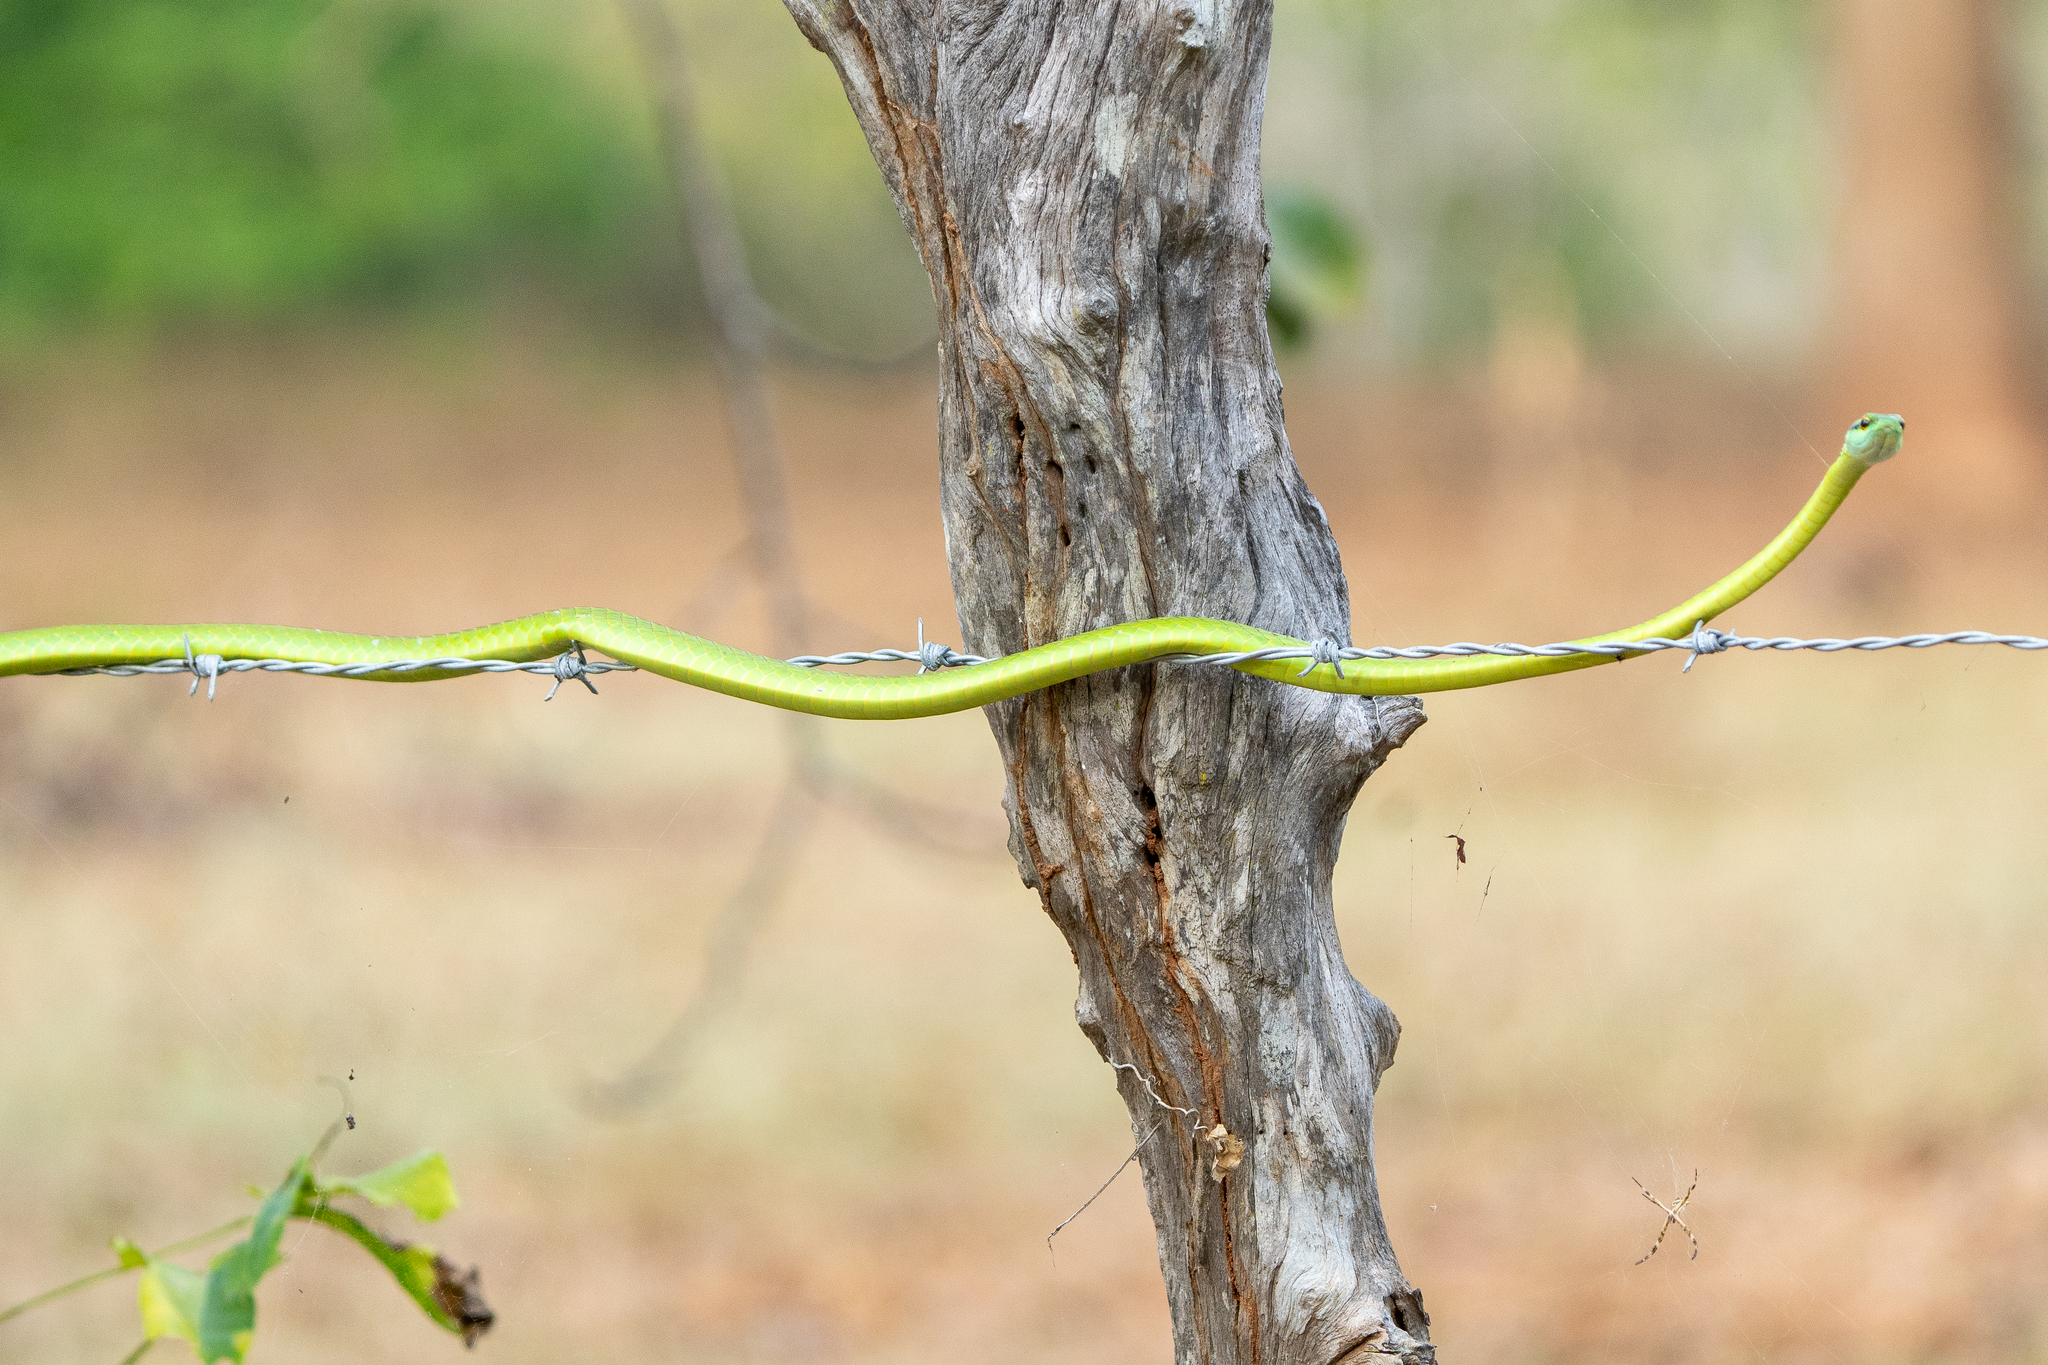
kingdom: Animalia
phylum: Chordata
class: Squamata
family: Colubridae
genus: Leptophis
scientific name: Leptophis ahaetulla
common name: Parrot snake
